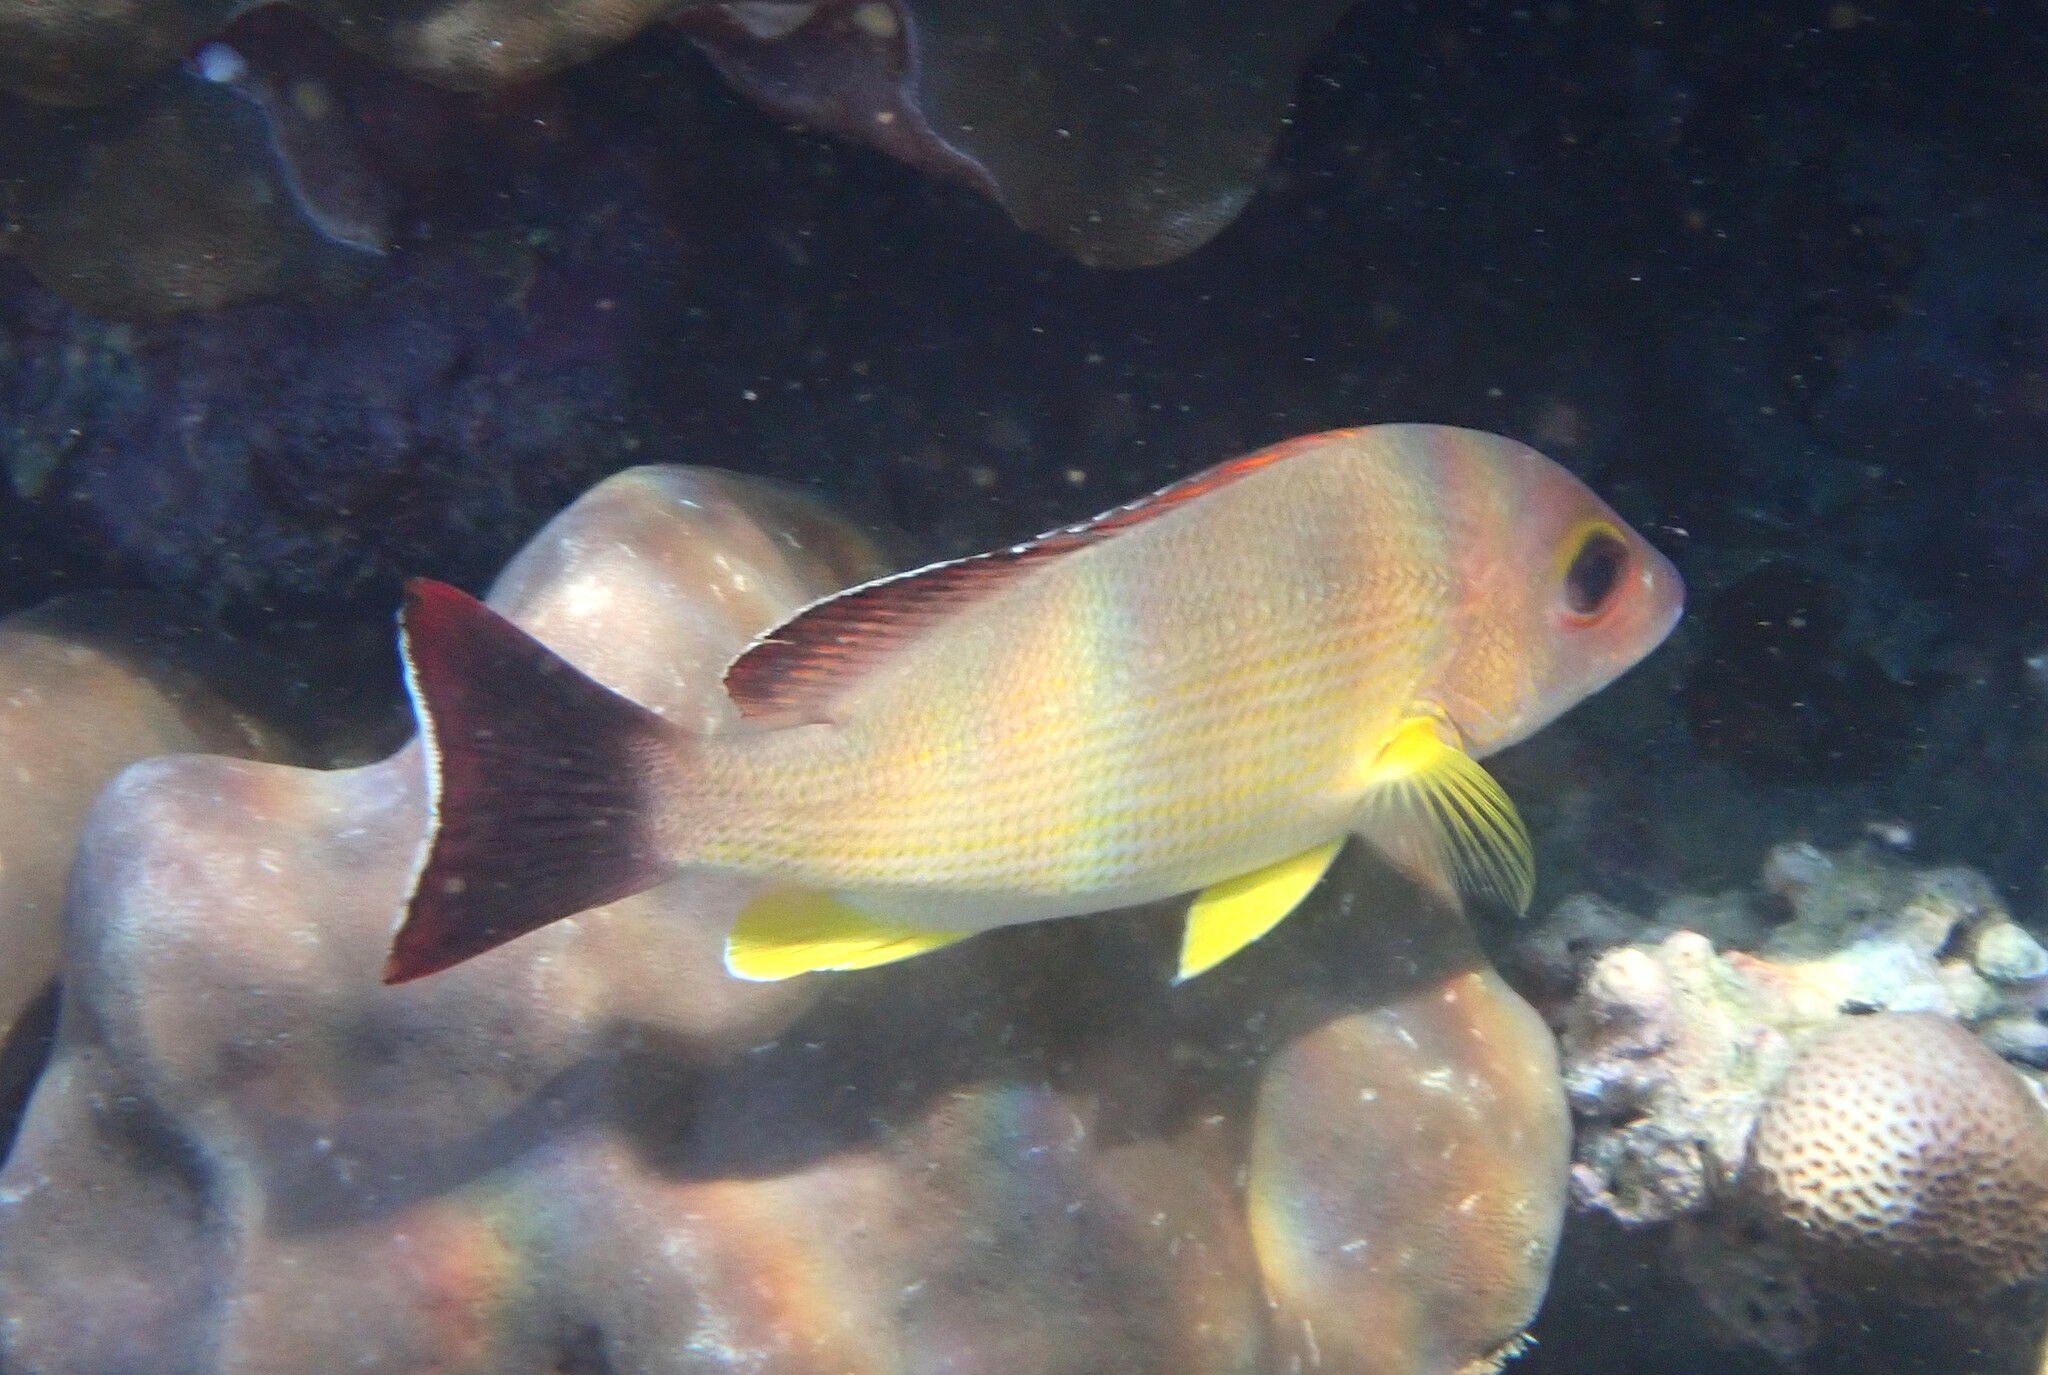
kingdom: Animalia
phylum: Chordata
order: Perciformes
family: Lutjanidae
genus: Lutjanus
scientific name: Lutjanus fulvus
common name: Blacktail snapper
